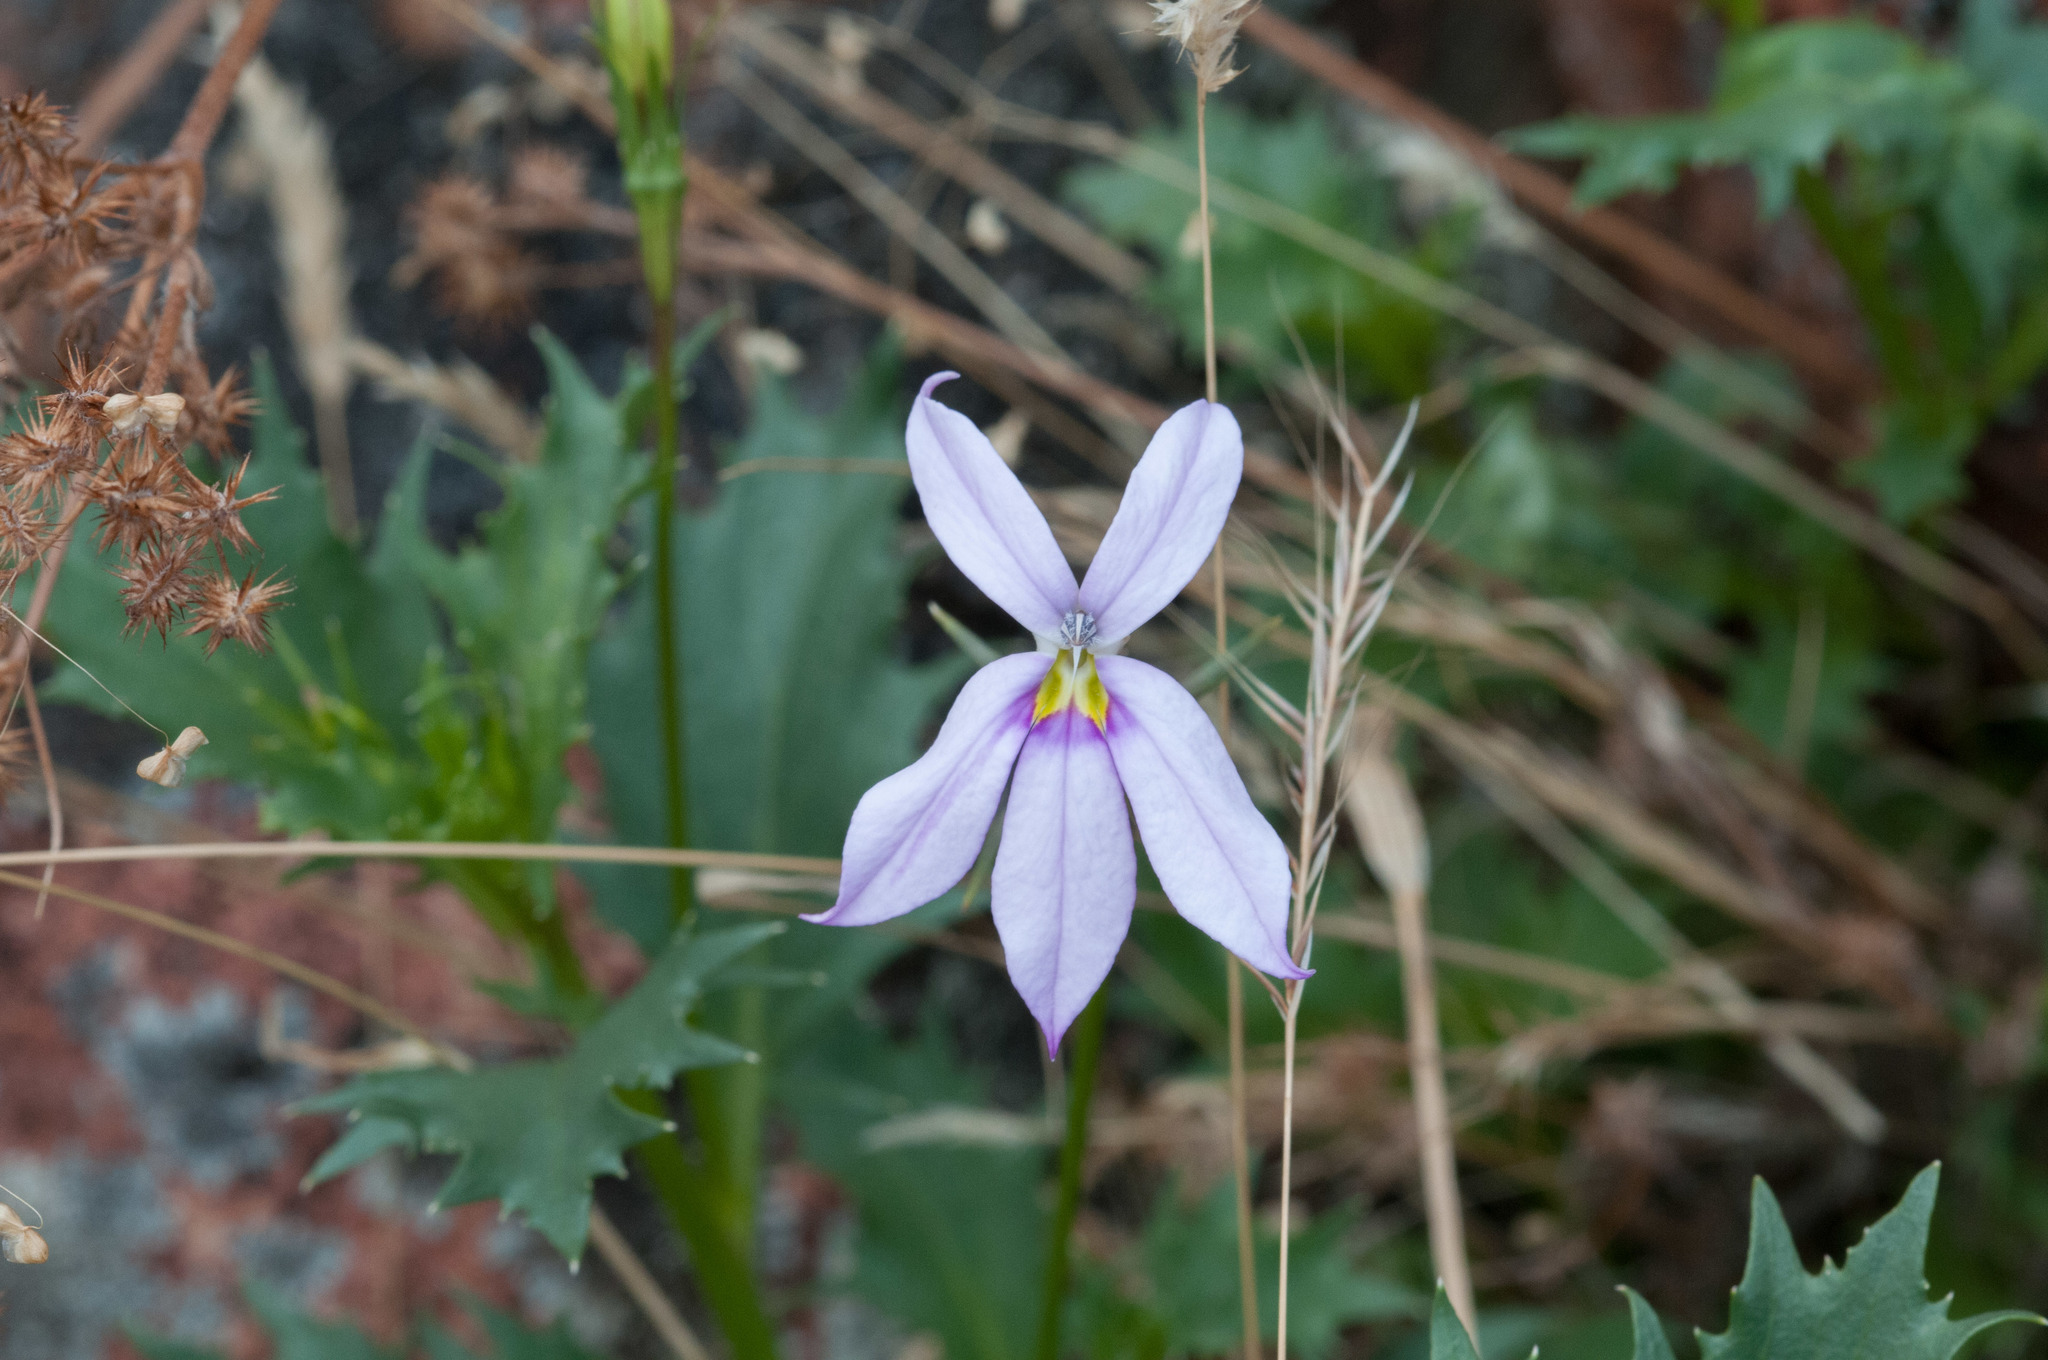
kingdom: Plantae
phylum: Tracheophyta
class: Magnoliopsida
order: Asterales
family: Campanulaceae
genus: Lithotoma
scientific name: Lithotoma petraea
